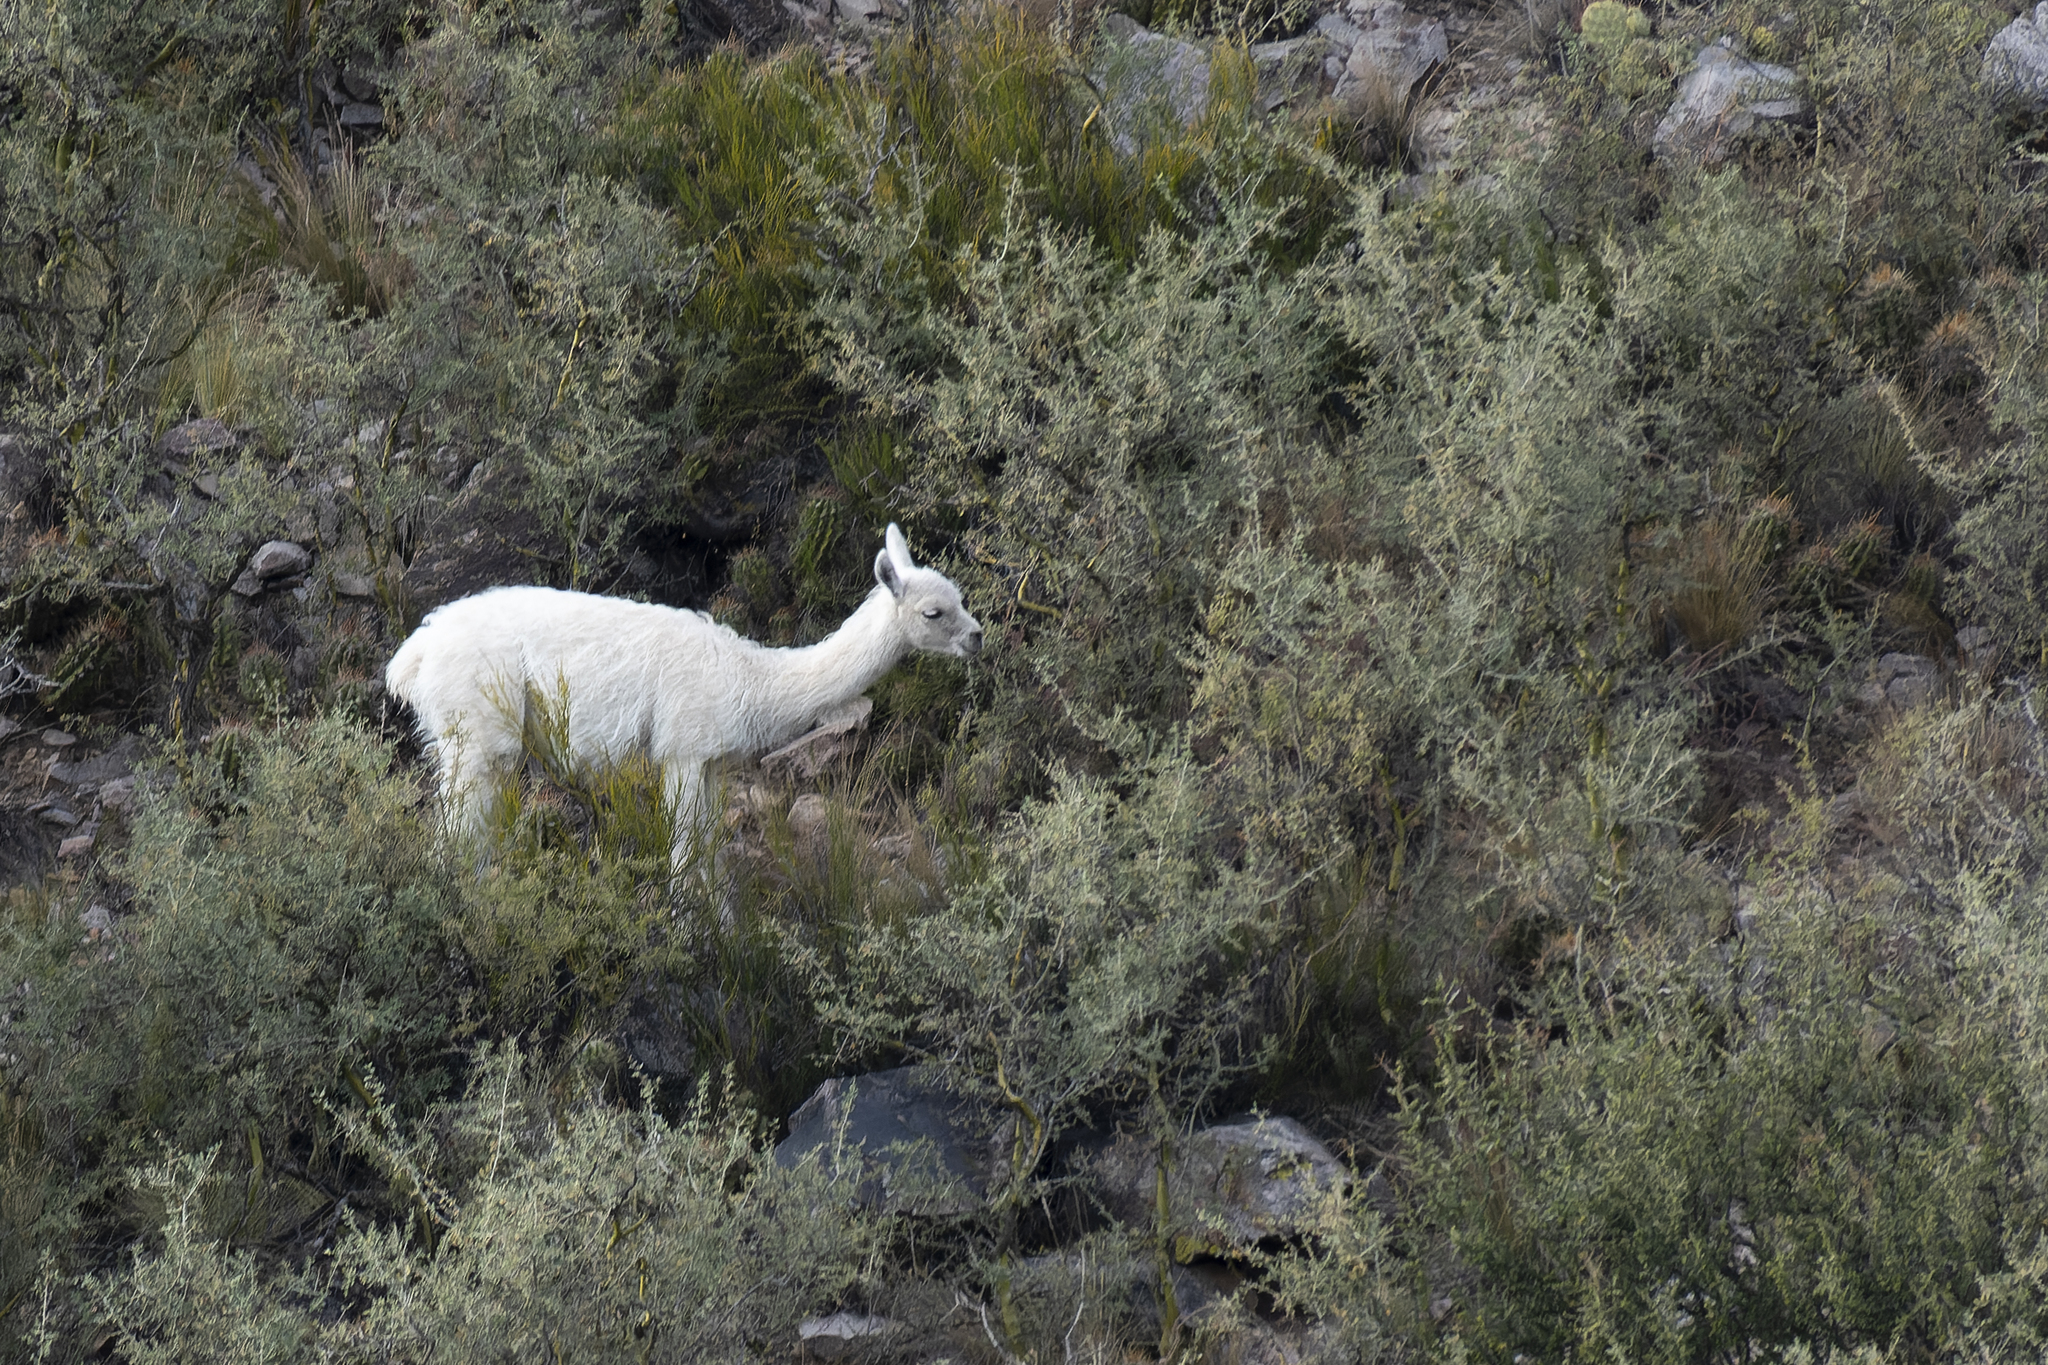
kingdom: Animalia
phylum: Chordata
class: Mammalia
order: Artiodactyla
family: Camelidae
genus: Lama
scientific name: Lama glama
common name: Llama
